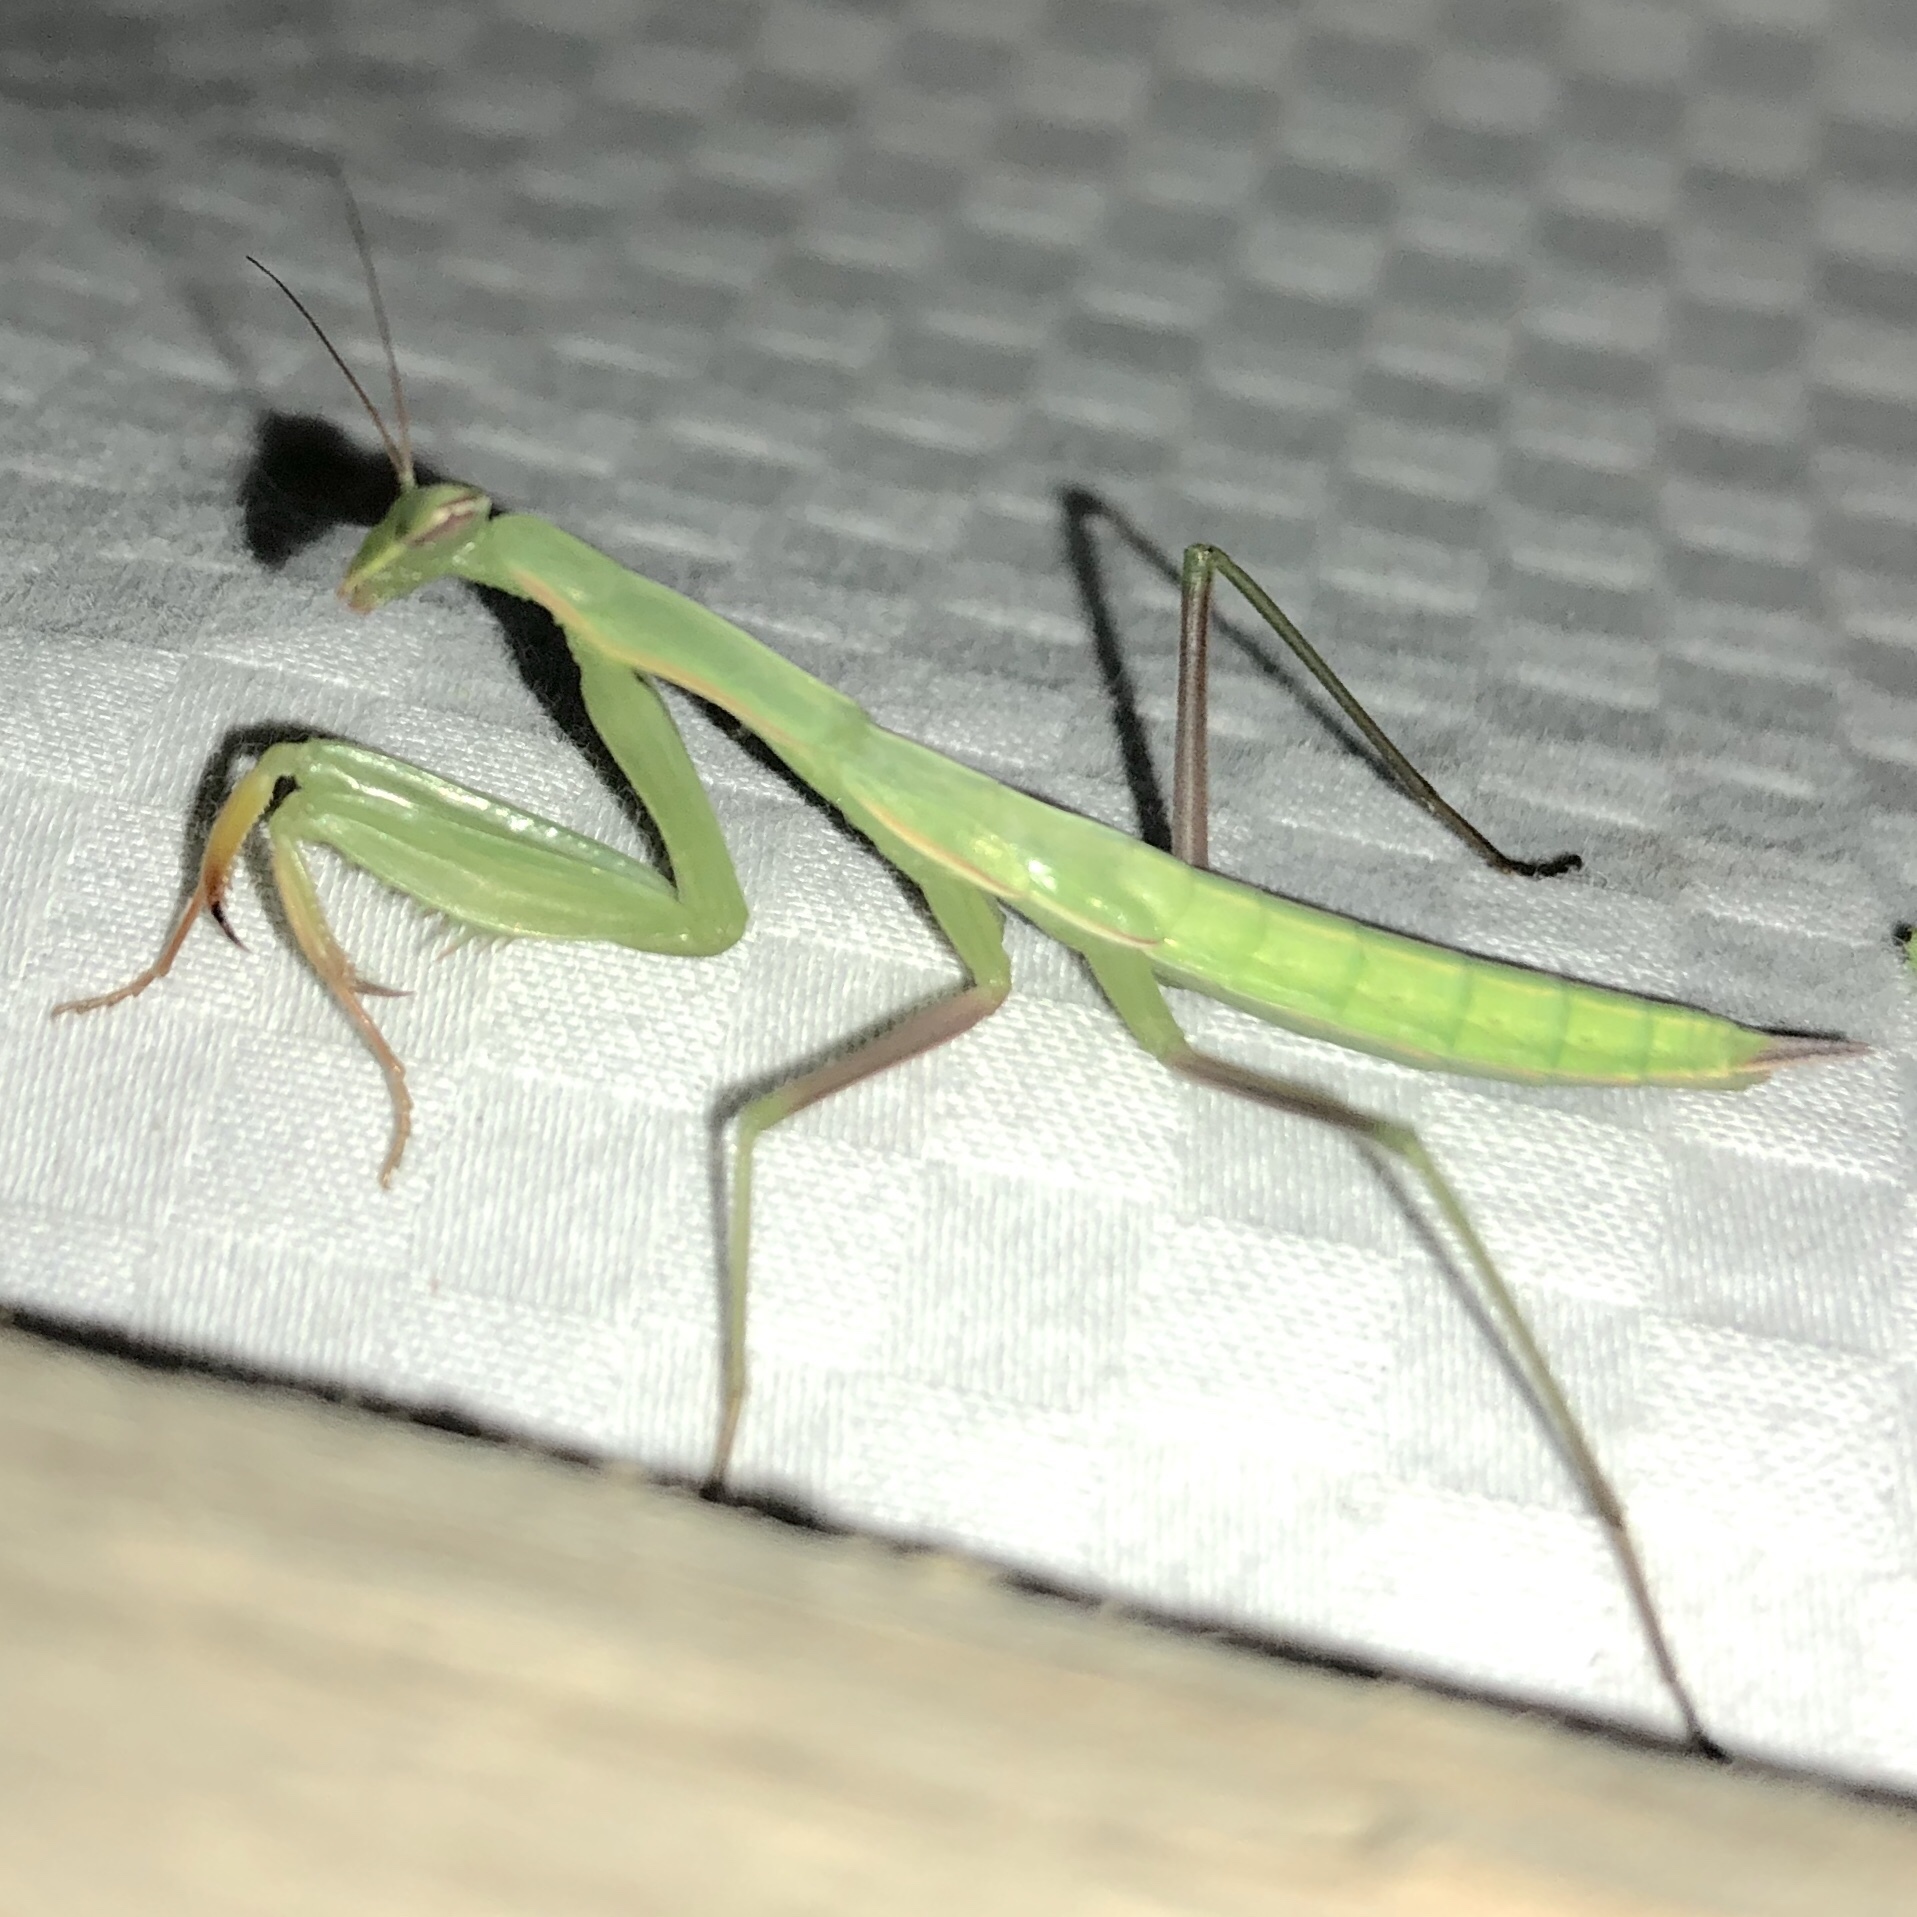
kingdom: Animalia
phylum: Arthropoda
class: Insecta
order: Mantodea
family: Mantidae
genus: Mantis
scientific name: Mantis religiosa
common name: Praying mantis
